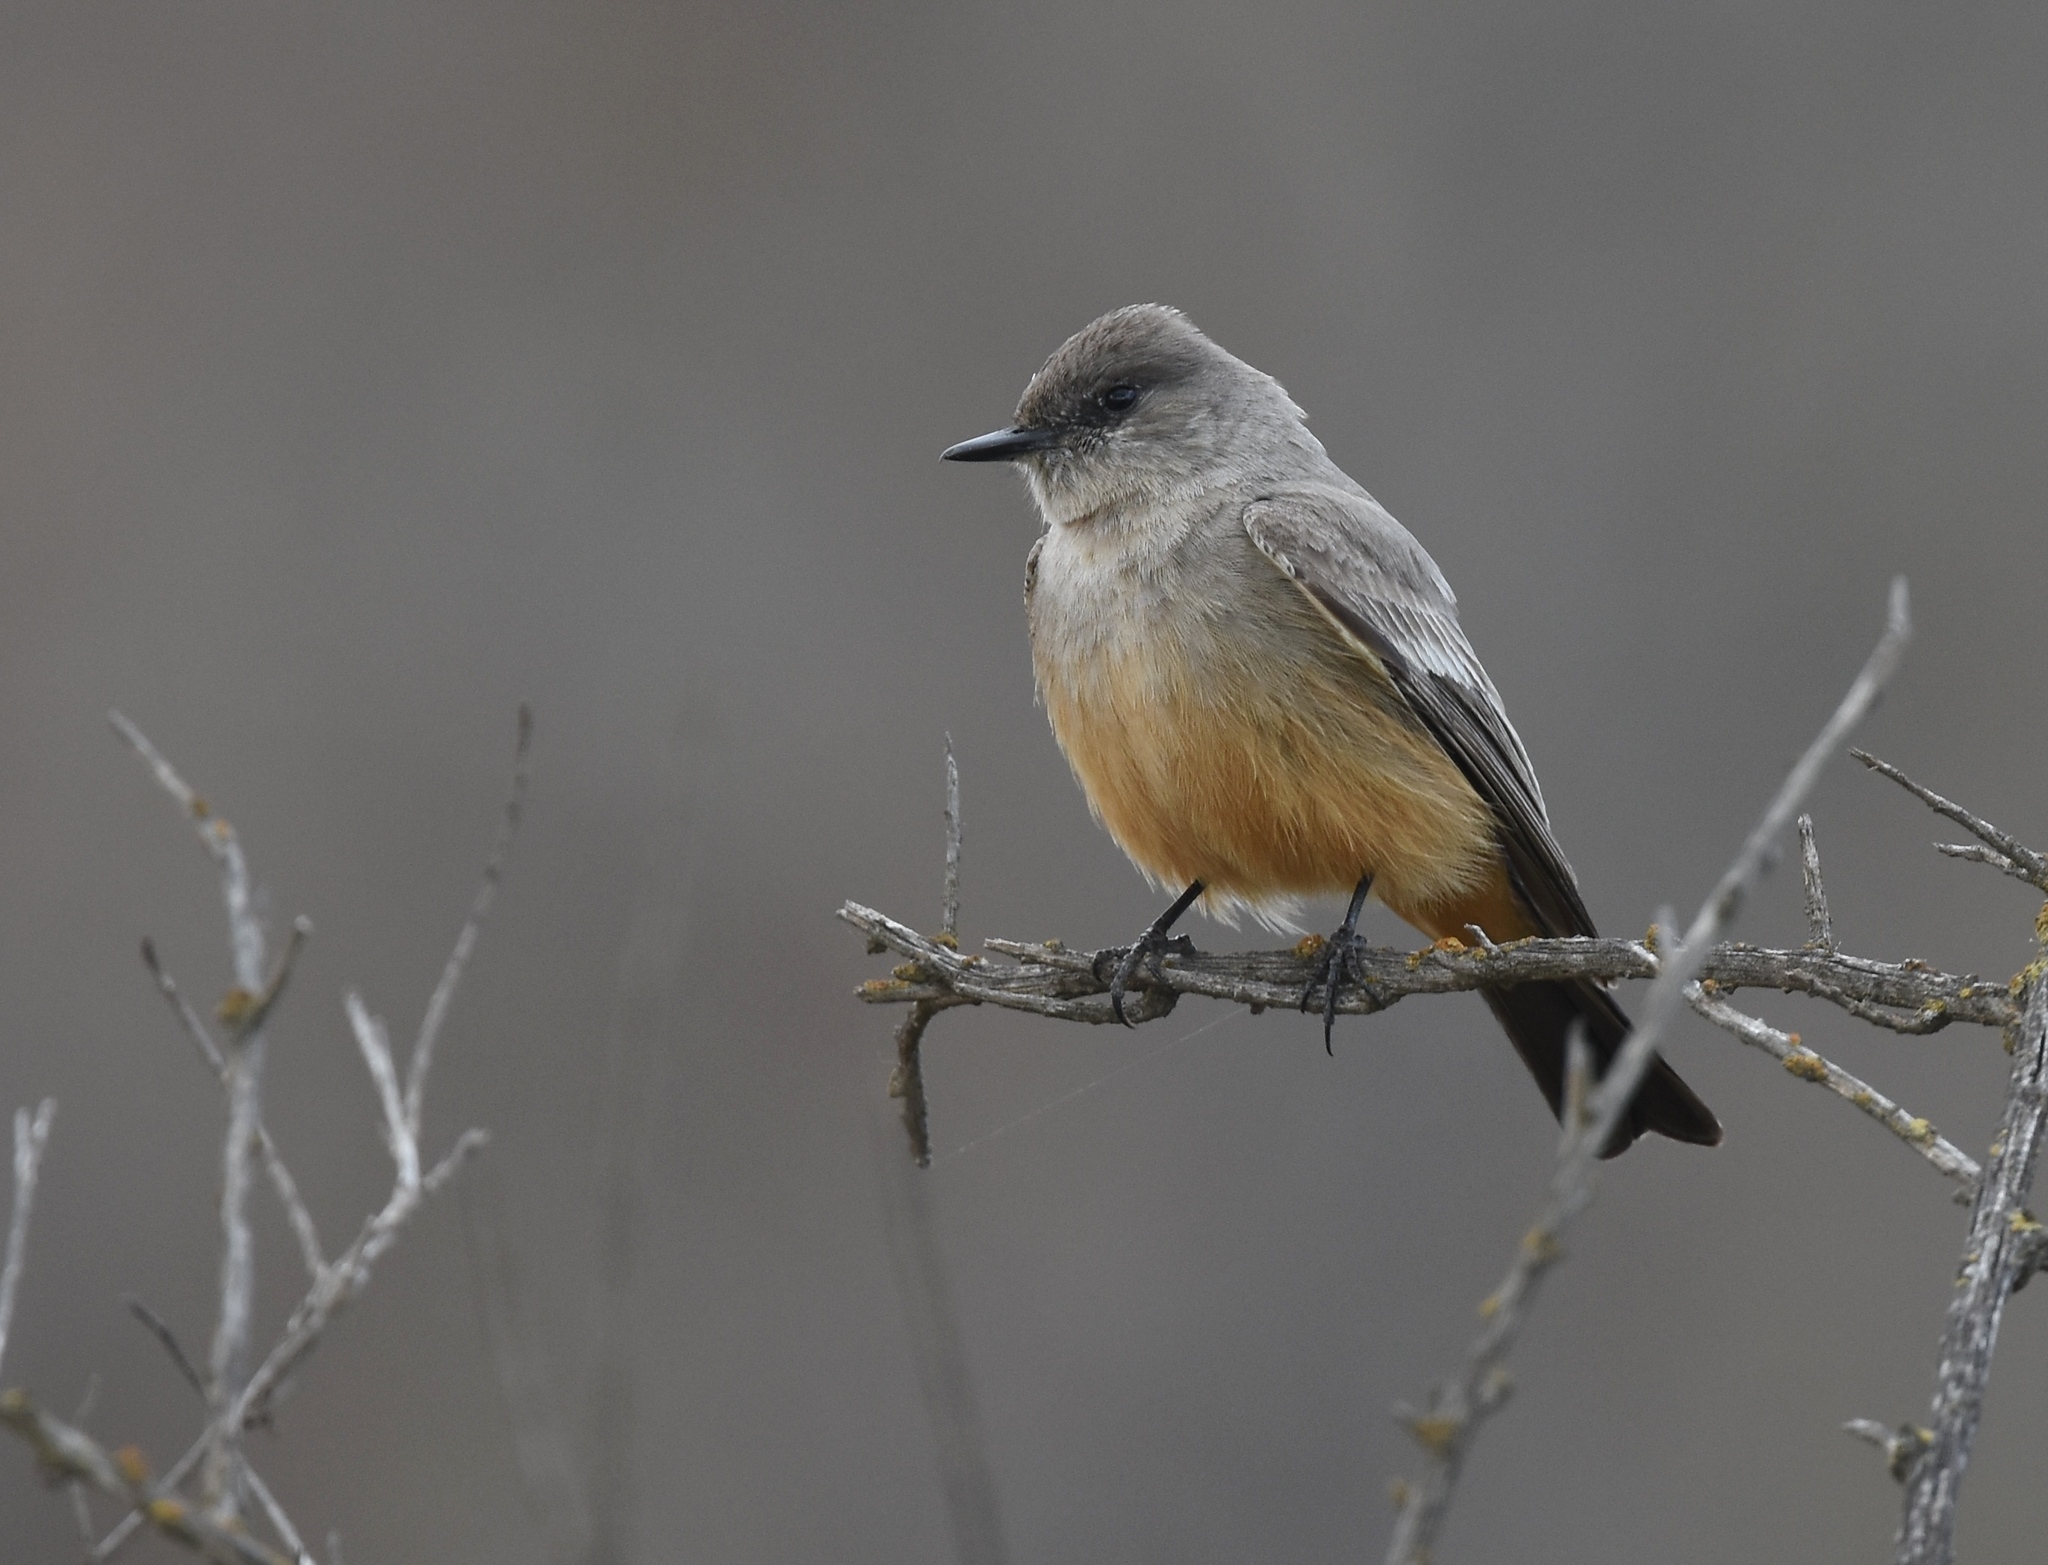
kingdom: Animalia
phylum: Chordata
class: Aves
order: Passeriformes
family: Tyrannidae
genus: Sayornis
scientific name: Sayornis saya
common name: Say's phoebe
